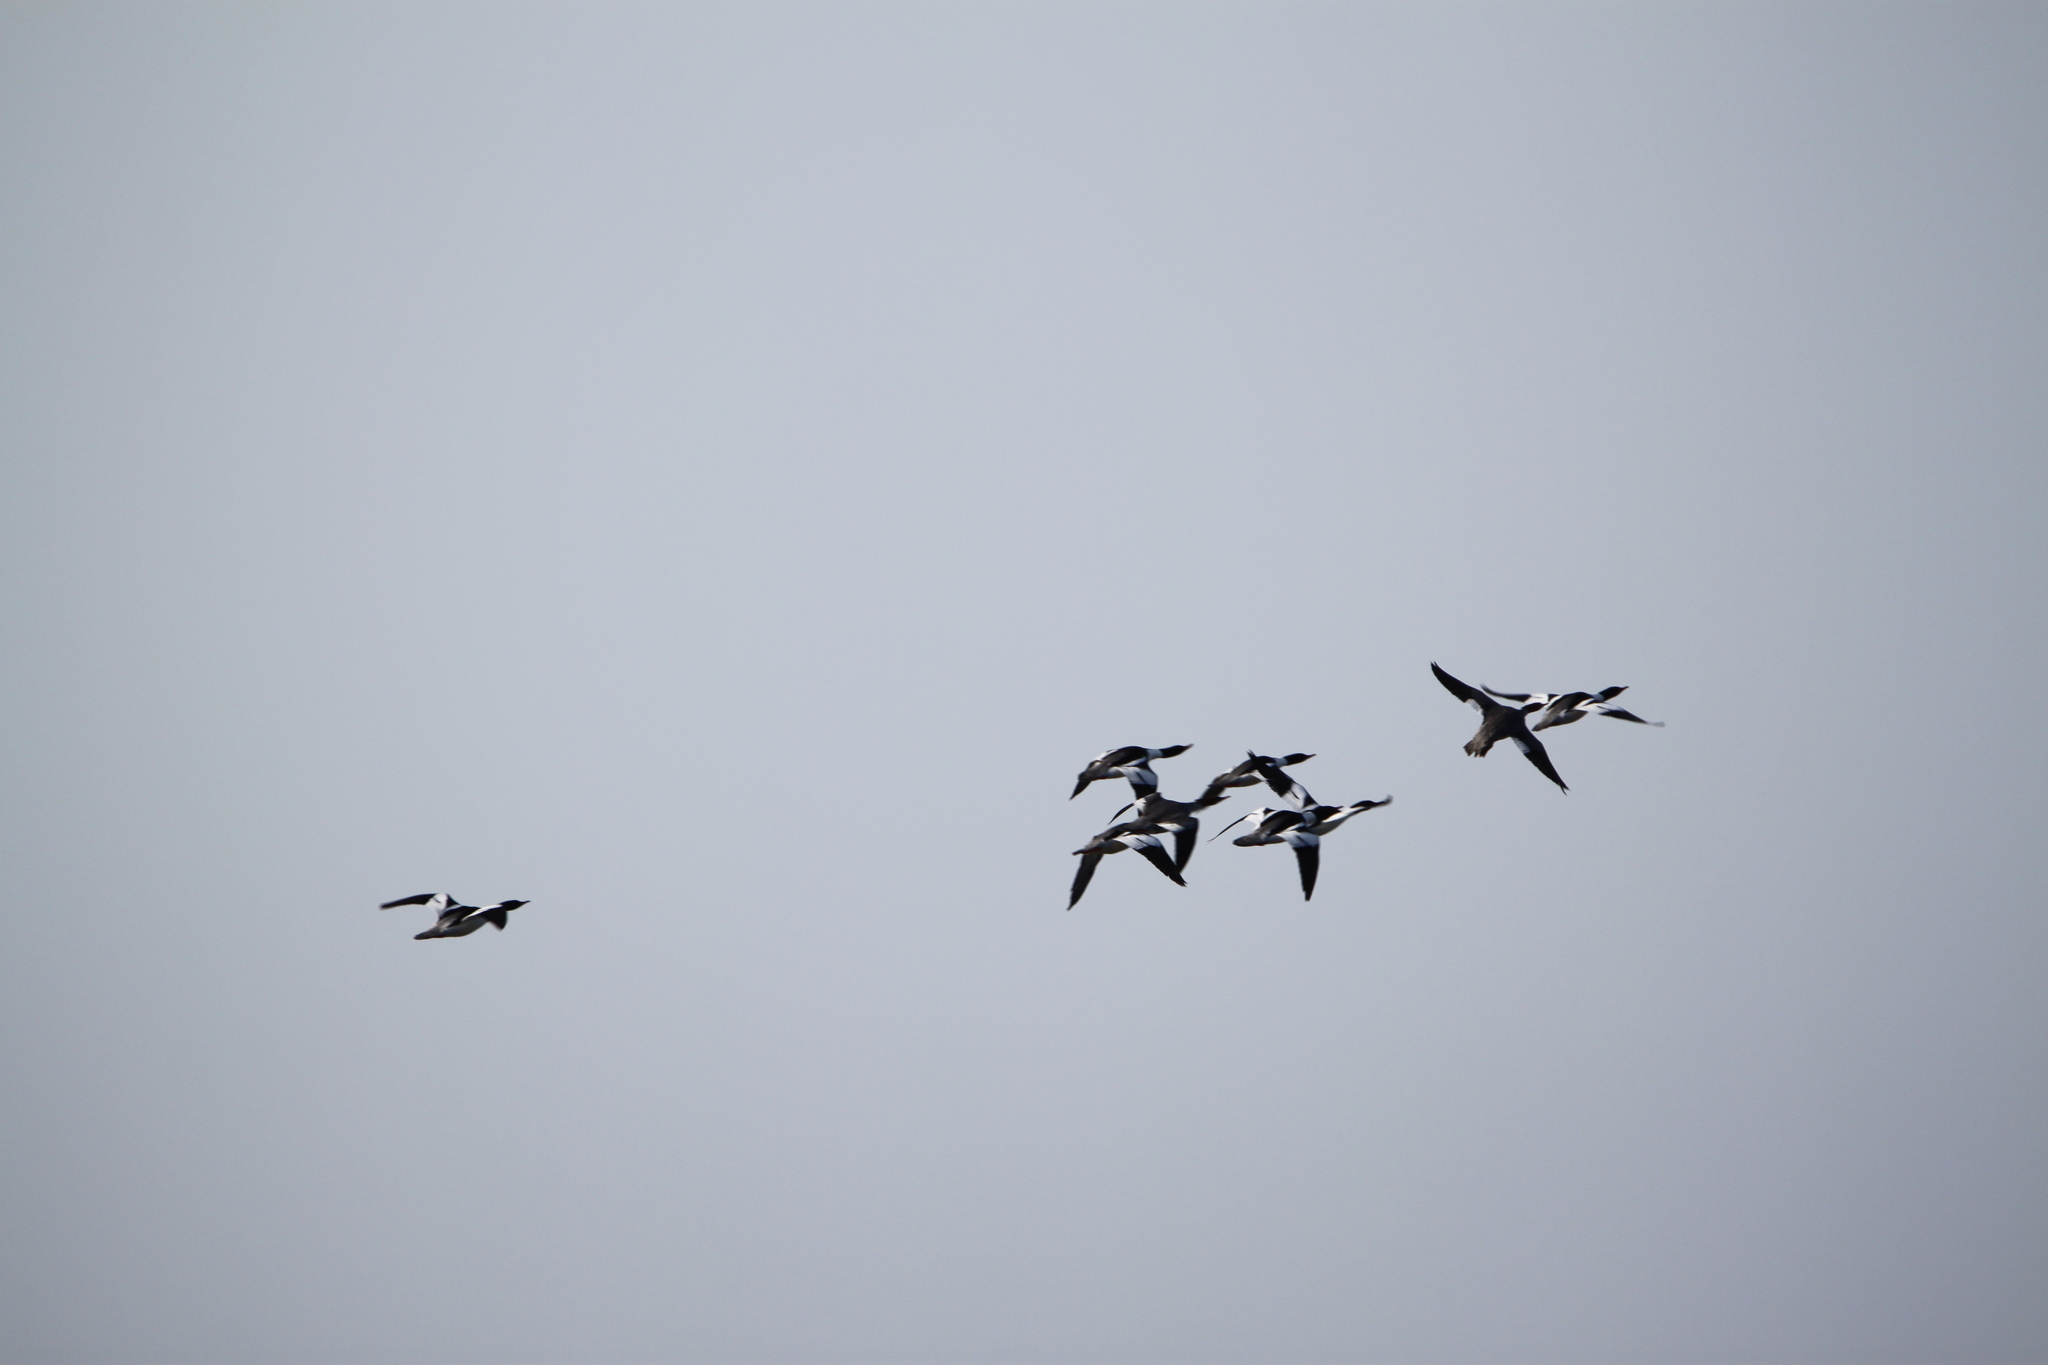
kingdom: Animalia
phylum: Chordata
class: Aves
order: Anseriformes
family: Anatidae
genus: Mergus
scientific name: Mergus merganser
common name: Common merganser
